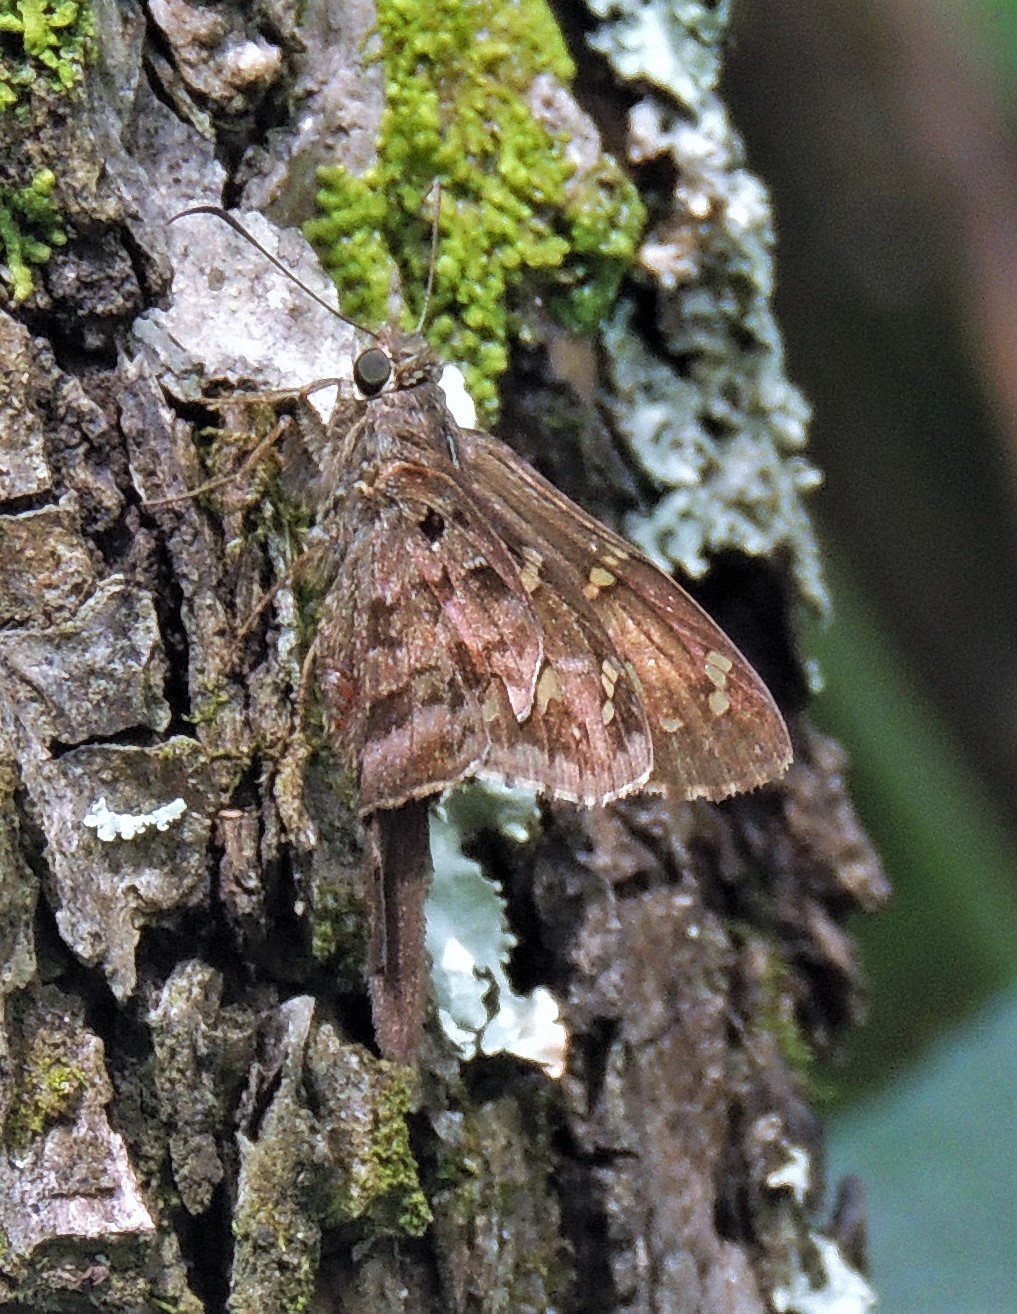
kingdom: Animalia
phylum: Arthropoda
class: Insecta
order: Lepidoptera
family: Hesperiidae
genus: Thorybes
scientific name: Thorybes
